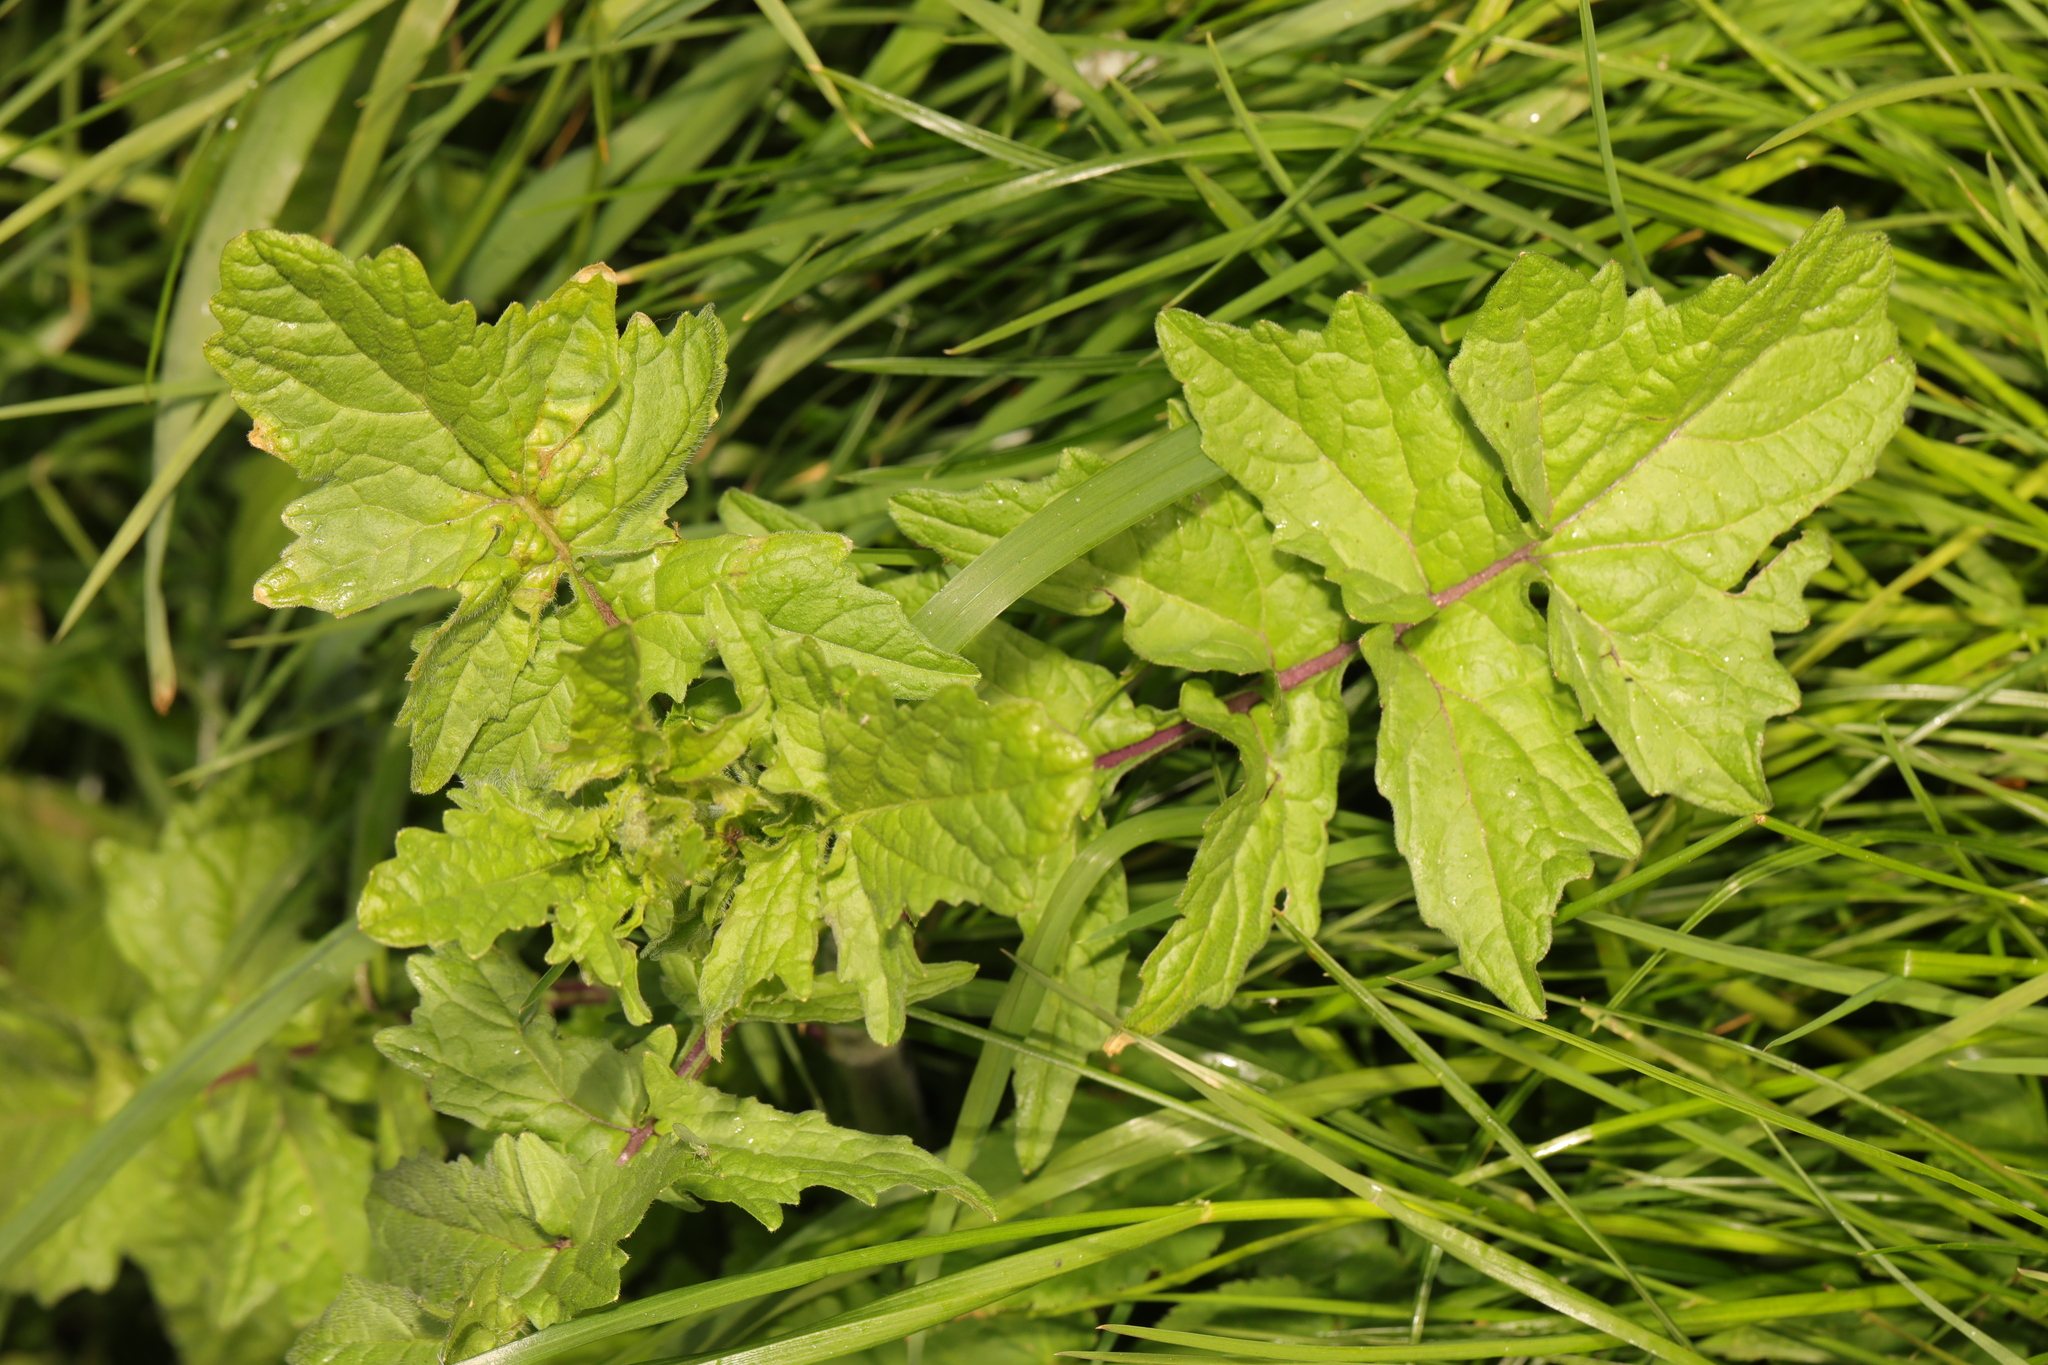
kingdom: Plantae
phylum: Tracheophyta
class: Magnoliopsida
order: Brassicales
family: Brassicaceae
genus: Sisymbrium
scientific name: Sisymbrium officinale
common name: Hedge mustard
